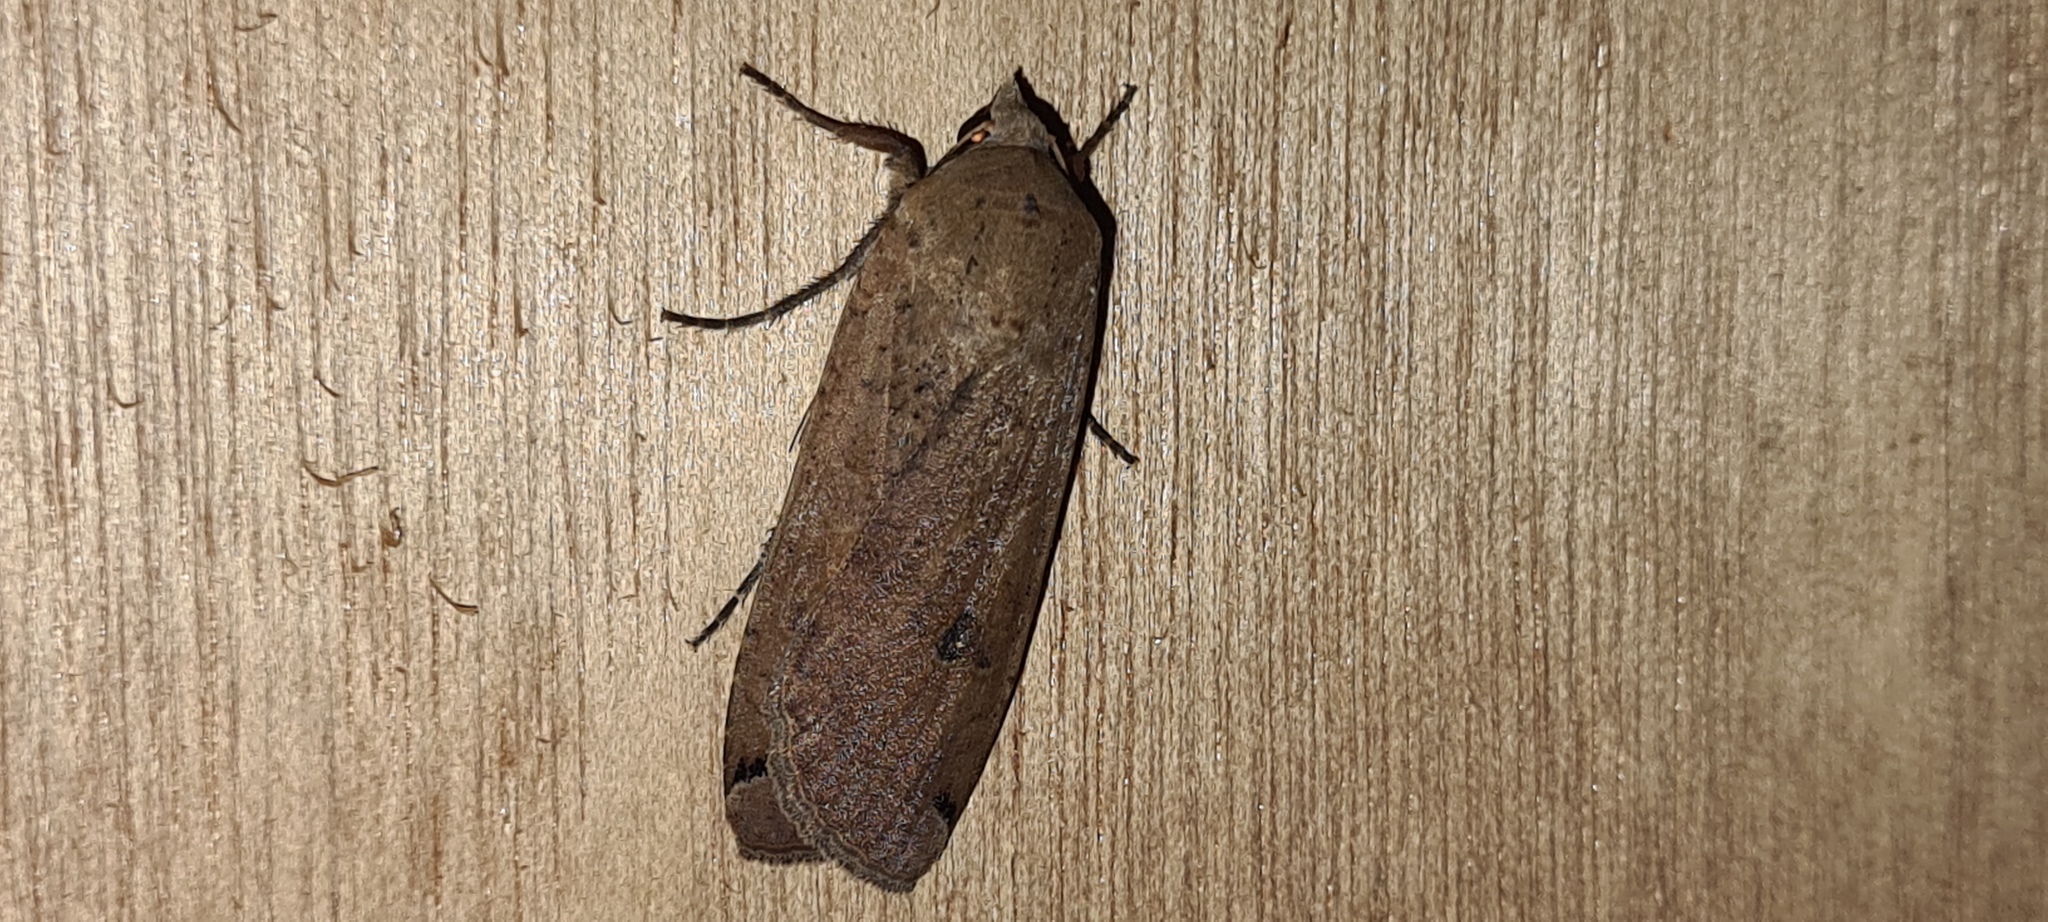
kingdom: Animalia
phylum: Arthropoda
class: Insecta
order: Lepidoptera
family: Noctuidae
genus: Noctua
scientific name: Noctua pronuba
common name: Large yellow underwing
